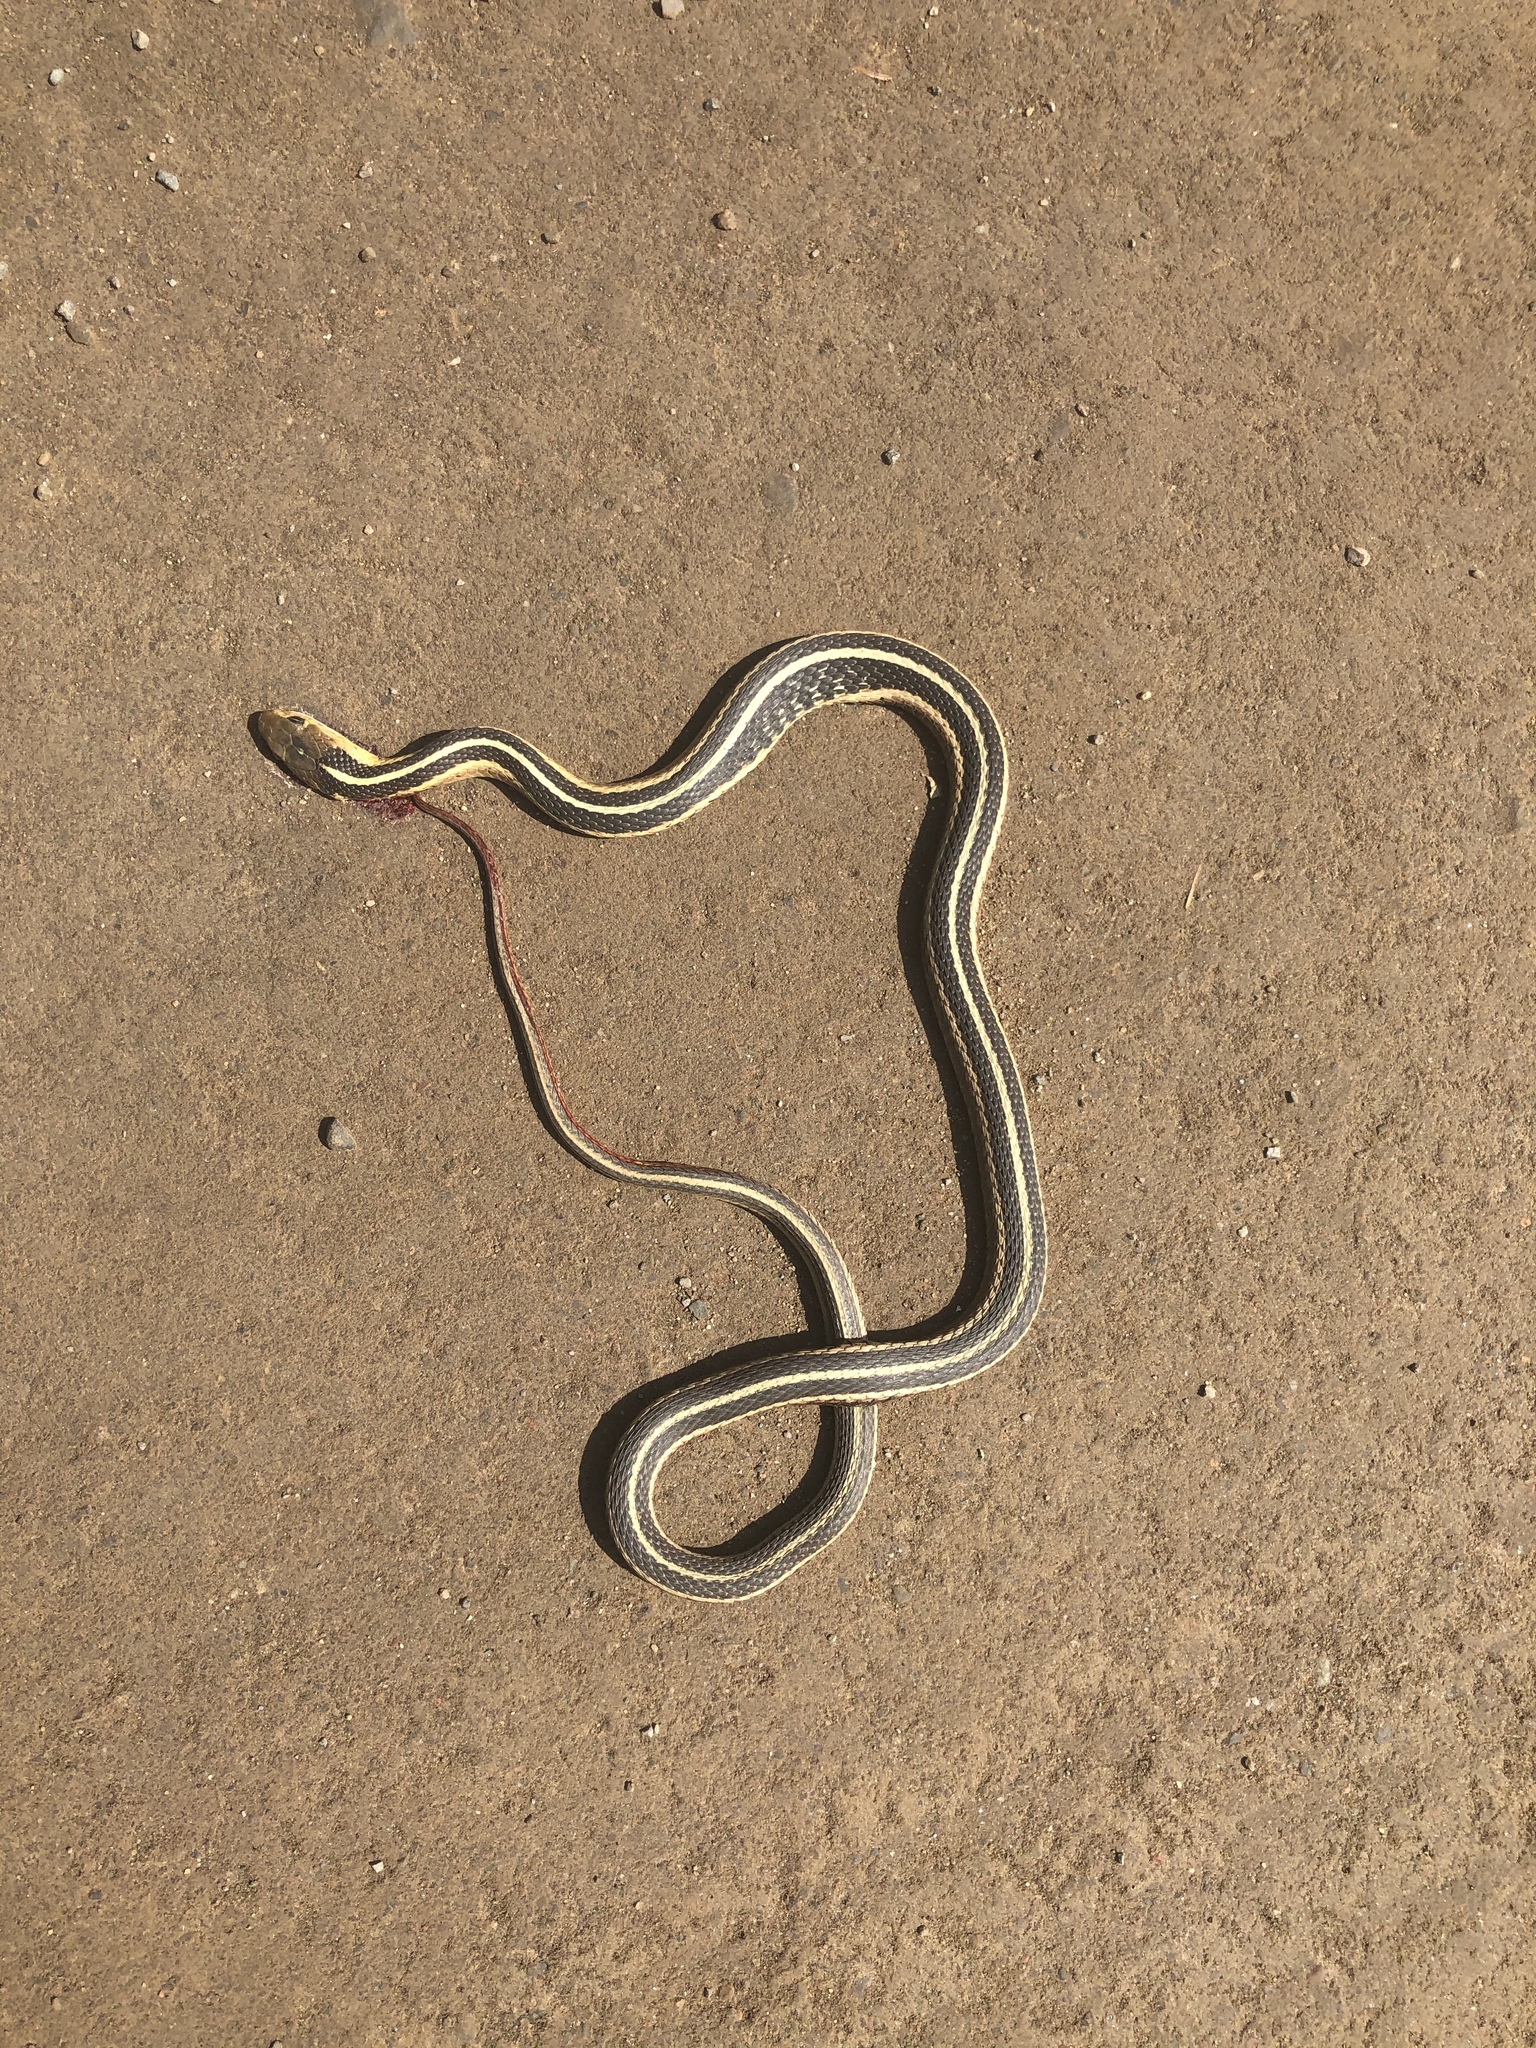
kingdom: Animalia
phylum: Chordata
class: Squamata
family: Colubridae
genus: Thamnophis
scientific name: Thamnophis sirtalis
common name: Common garter snake
